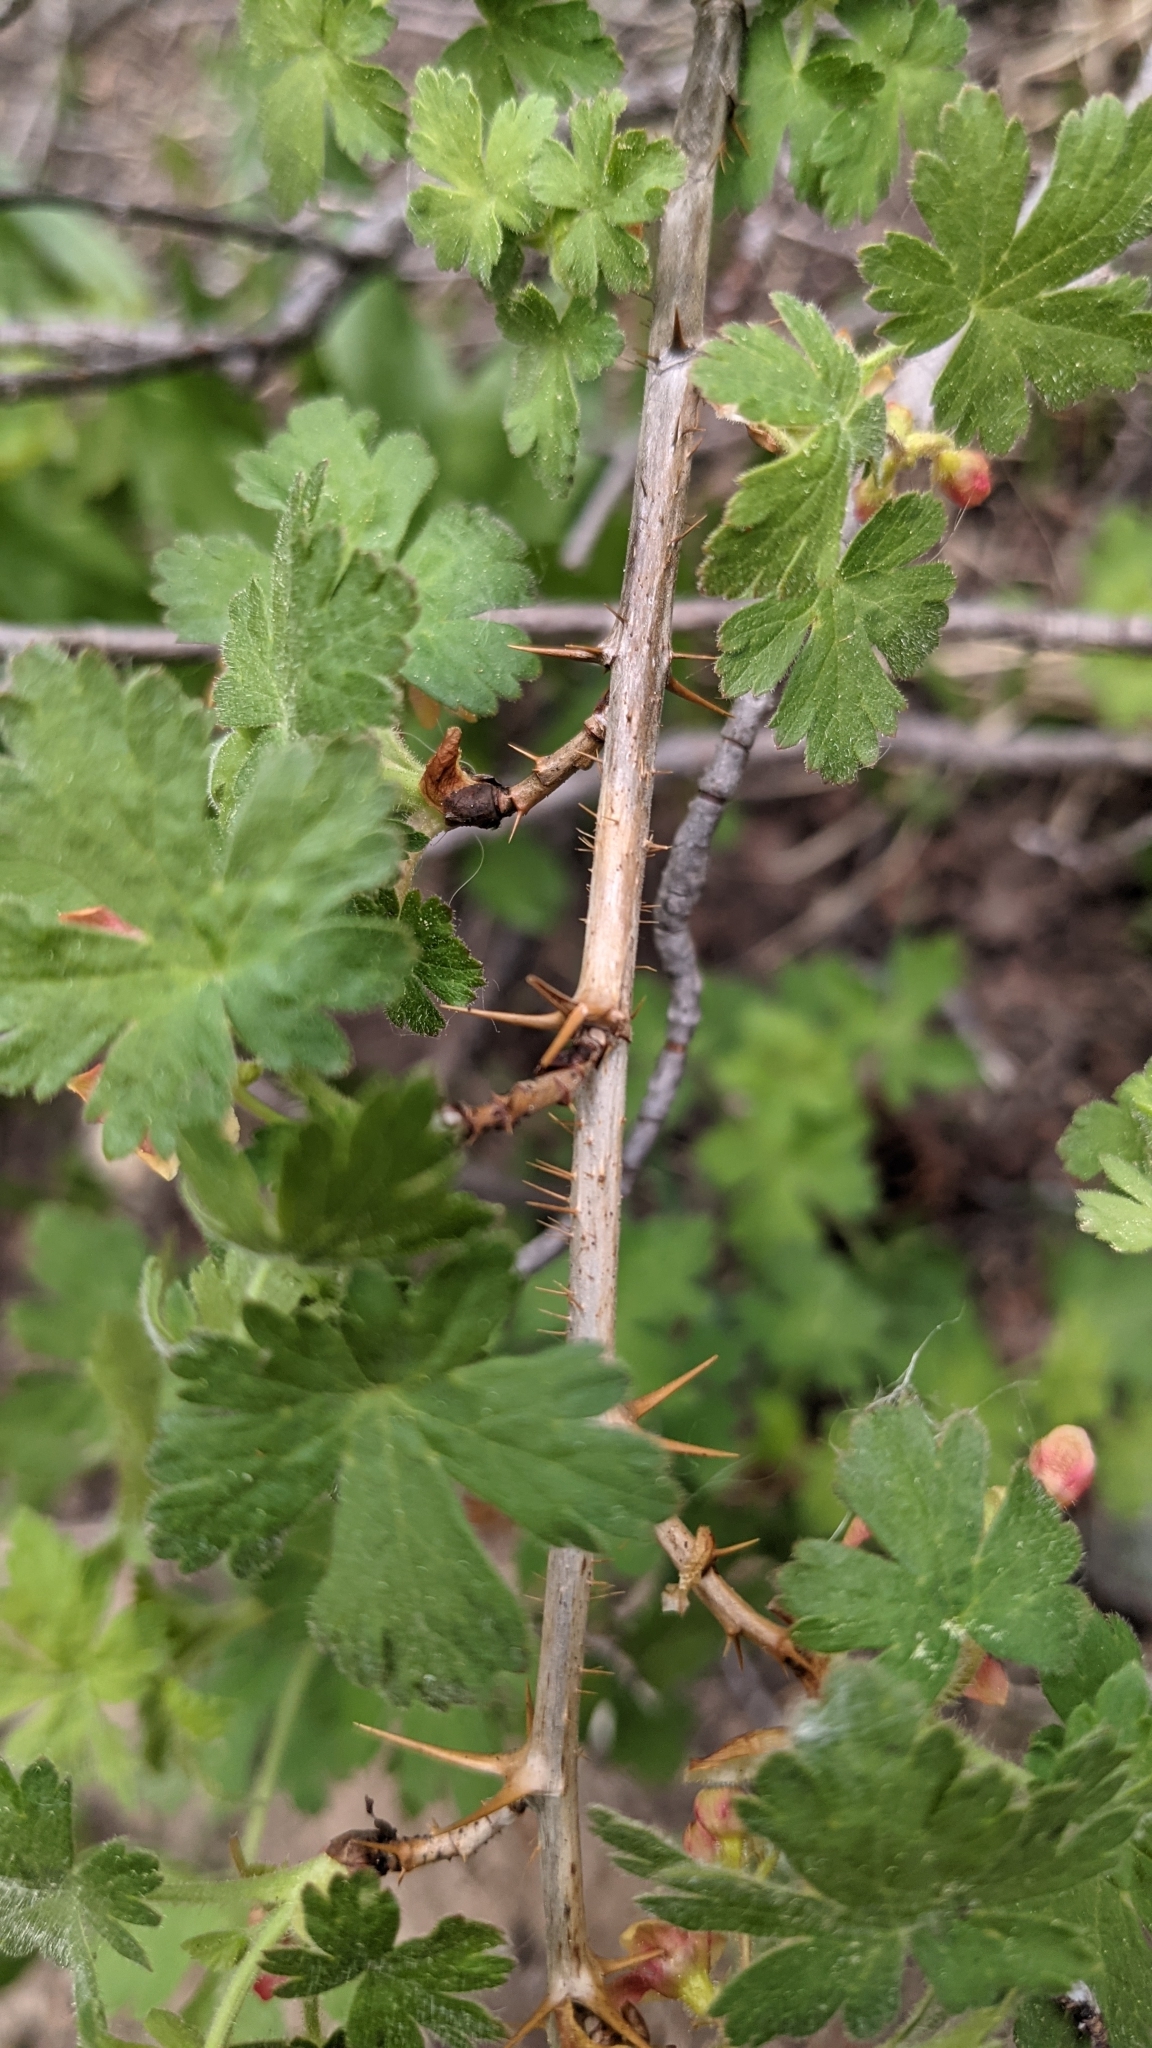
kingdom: Plantae
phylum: Tracheophyta
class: Magnoliopsida
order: Saxifragales
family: Grossulariaceae
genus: Ribes
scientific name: Ribes montigenum
